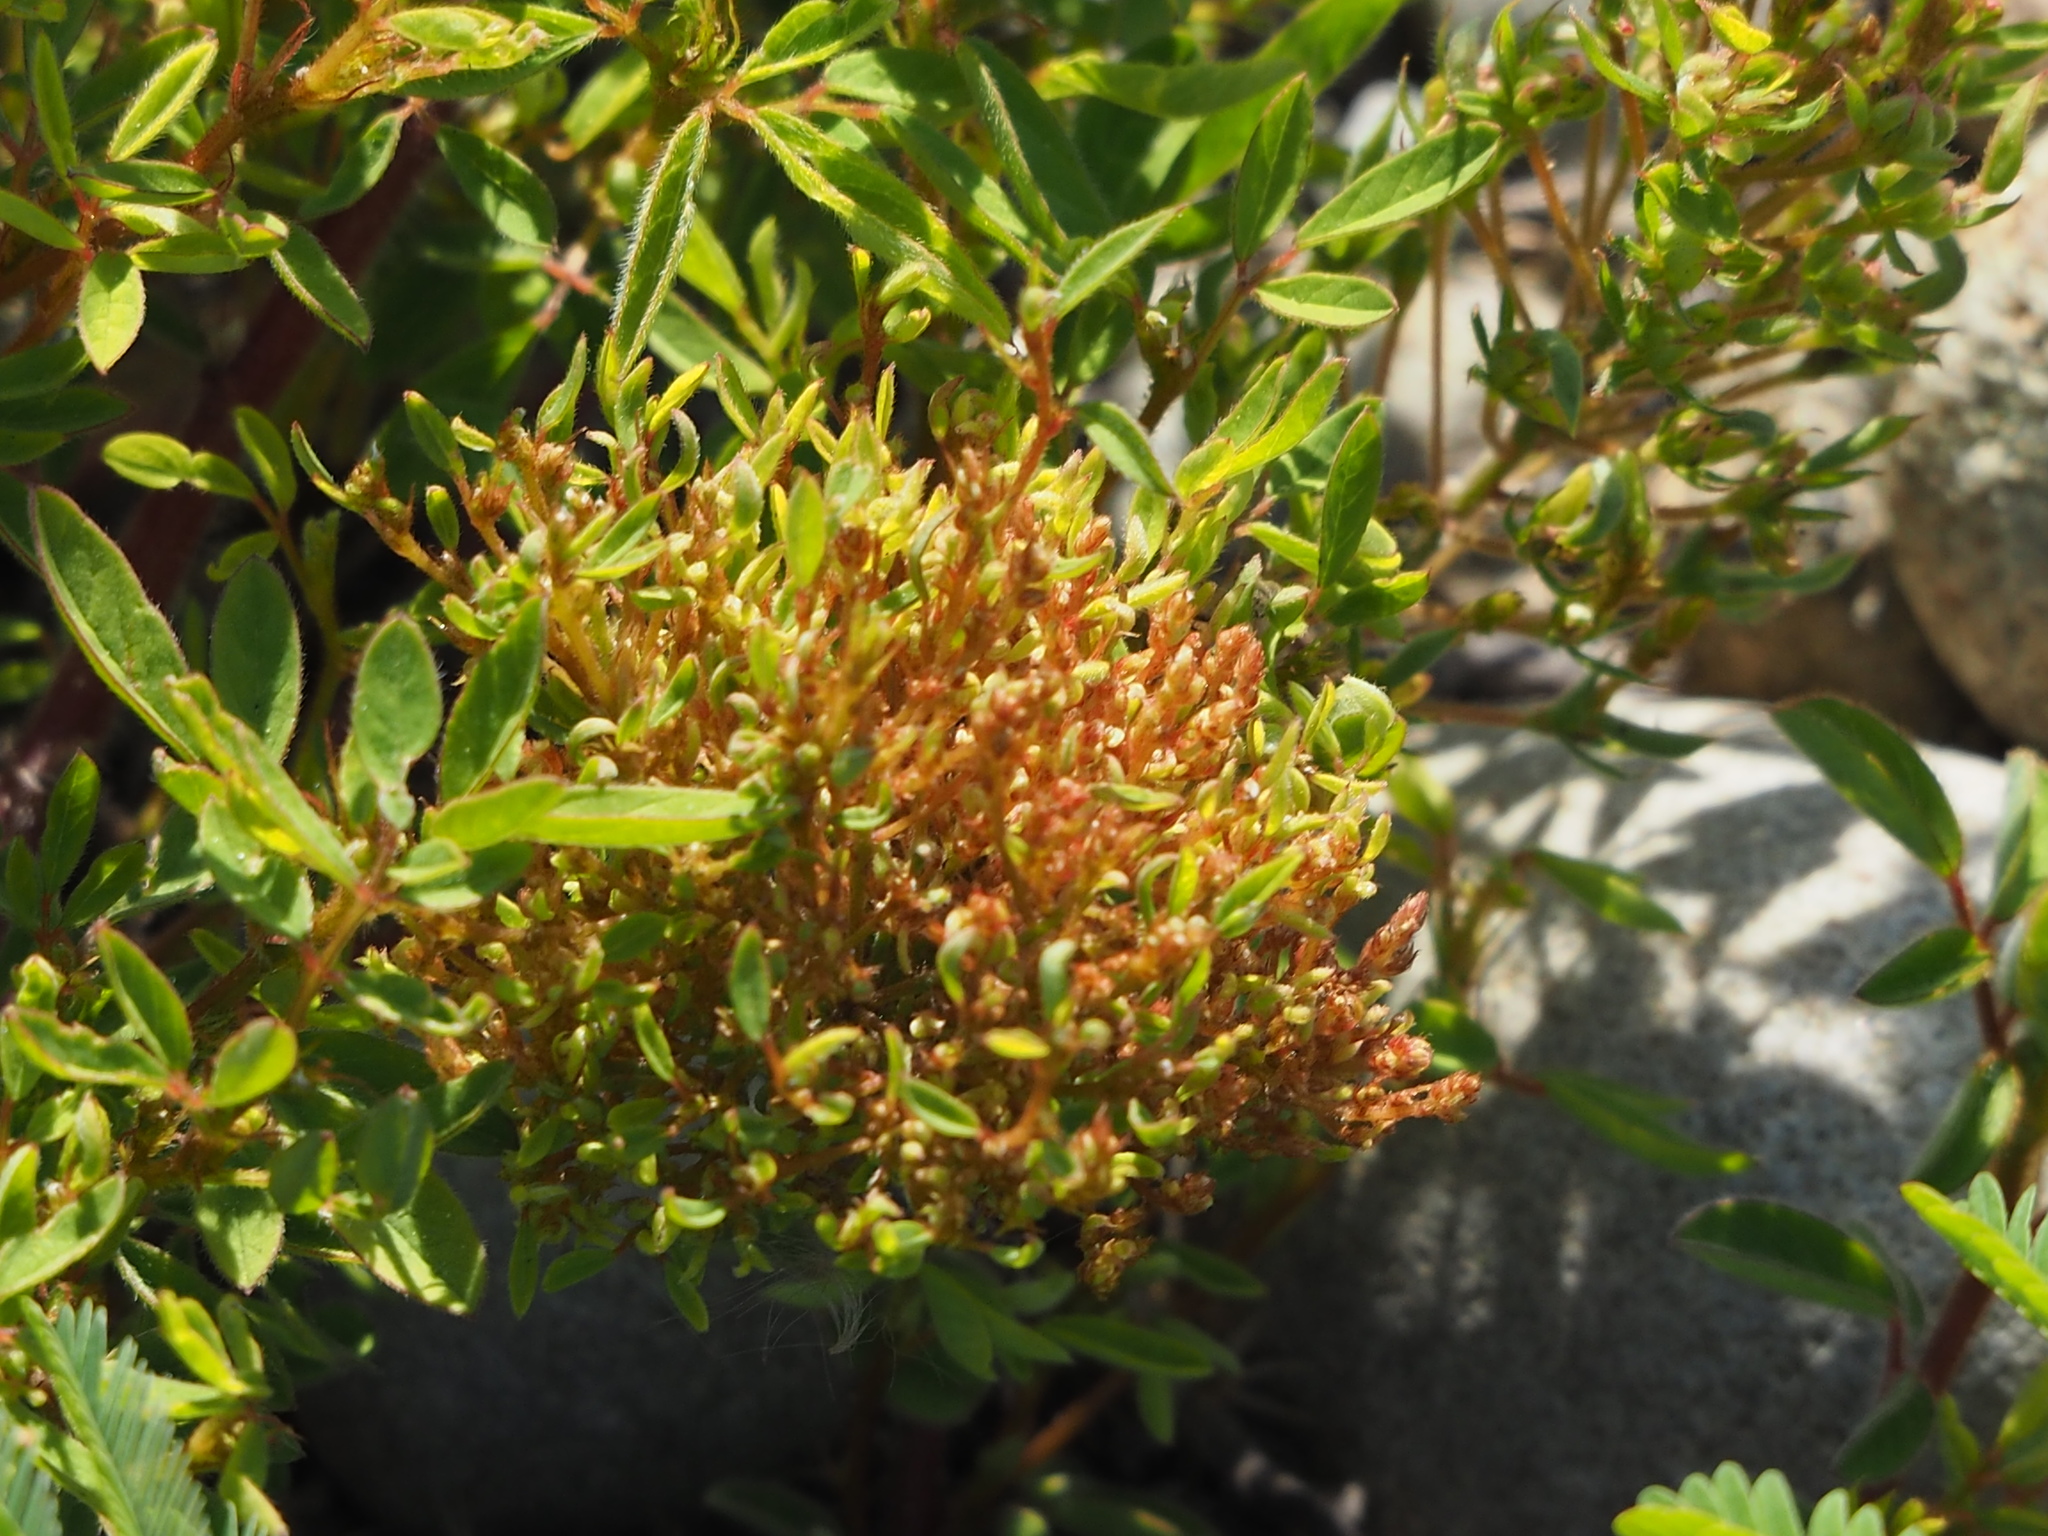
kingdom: Plantae
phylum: Tracheophyta
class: Magnoliopsida
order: Fabales
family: Fabaceae
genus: Indigofera
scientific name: Indigofera hirsuta
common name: Hairy indigo
